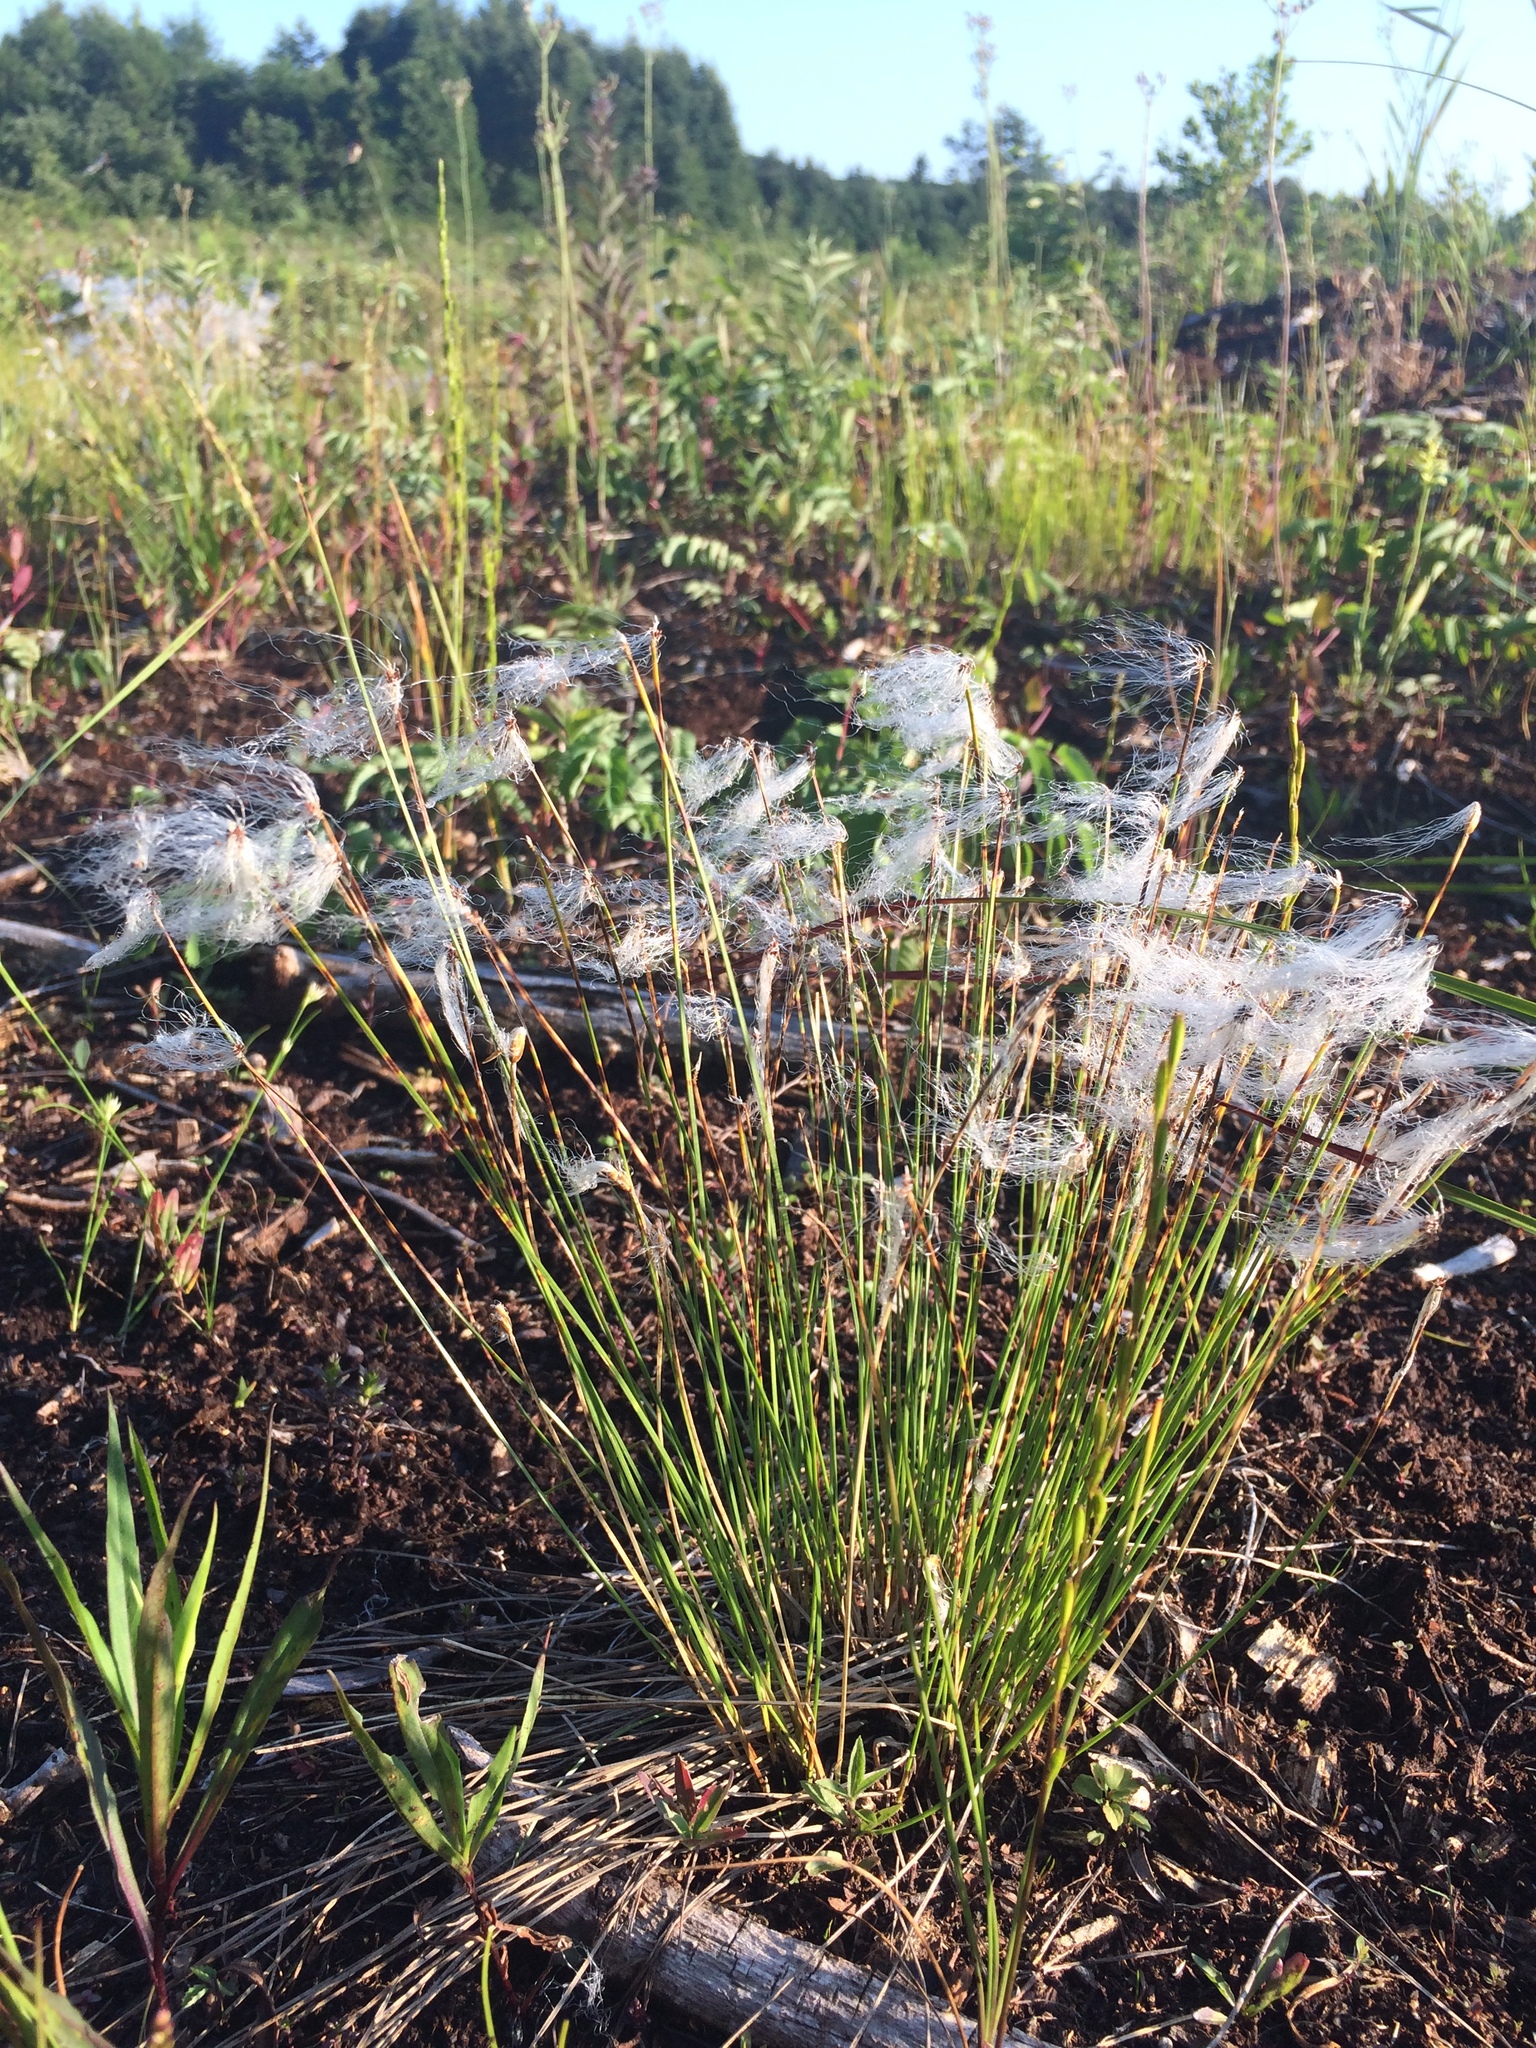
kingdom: Plantae
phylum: Tracheophyta
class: Liliopsida
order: Poales
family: Cyperaceae
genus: Trichophorum
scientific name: Trichophorum alpinum
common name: Alpine bulrush
